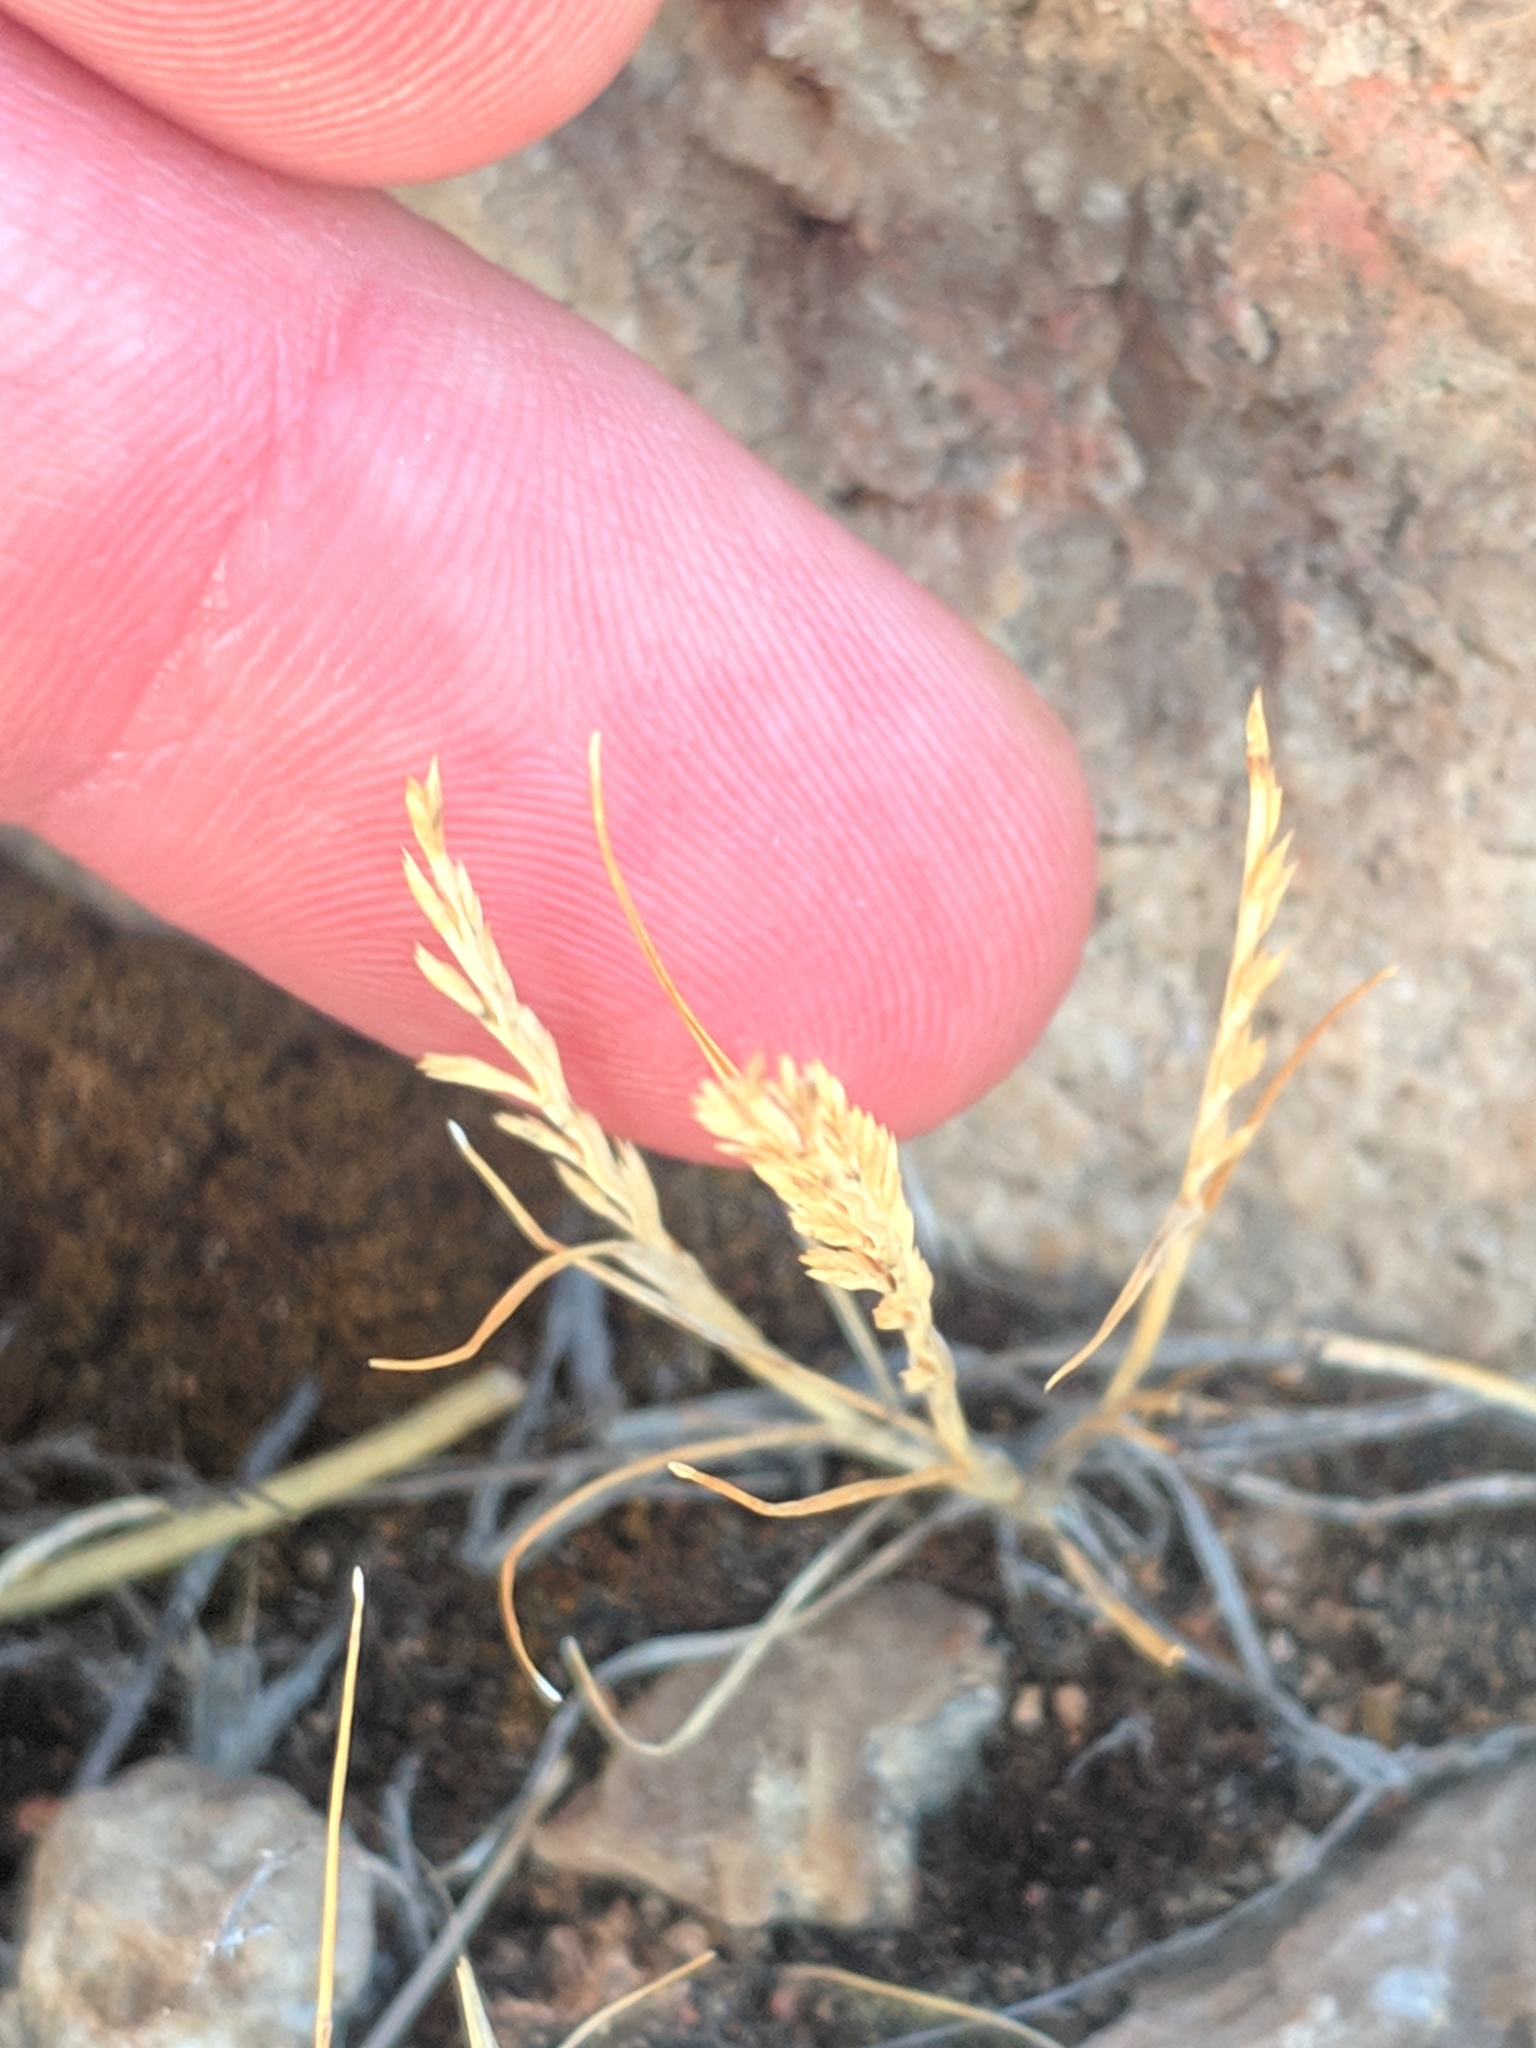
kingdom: Plantae
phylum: Tracheophyta
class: Liliopsida
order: Poales
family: Poaceae
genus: Catapodium
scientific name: Catapodium rigidum
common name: Fern-grass
